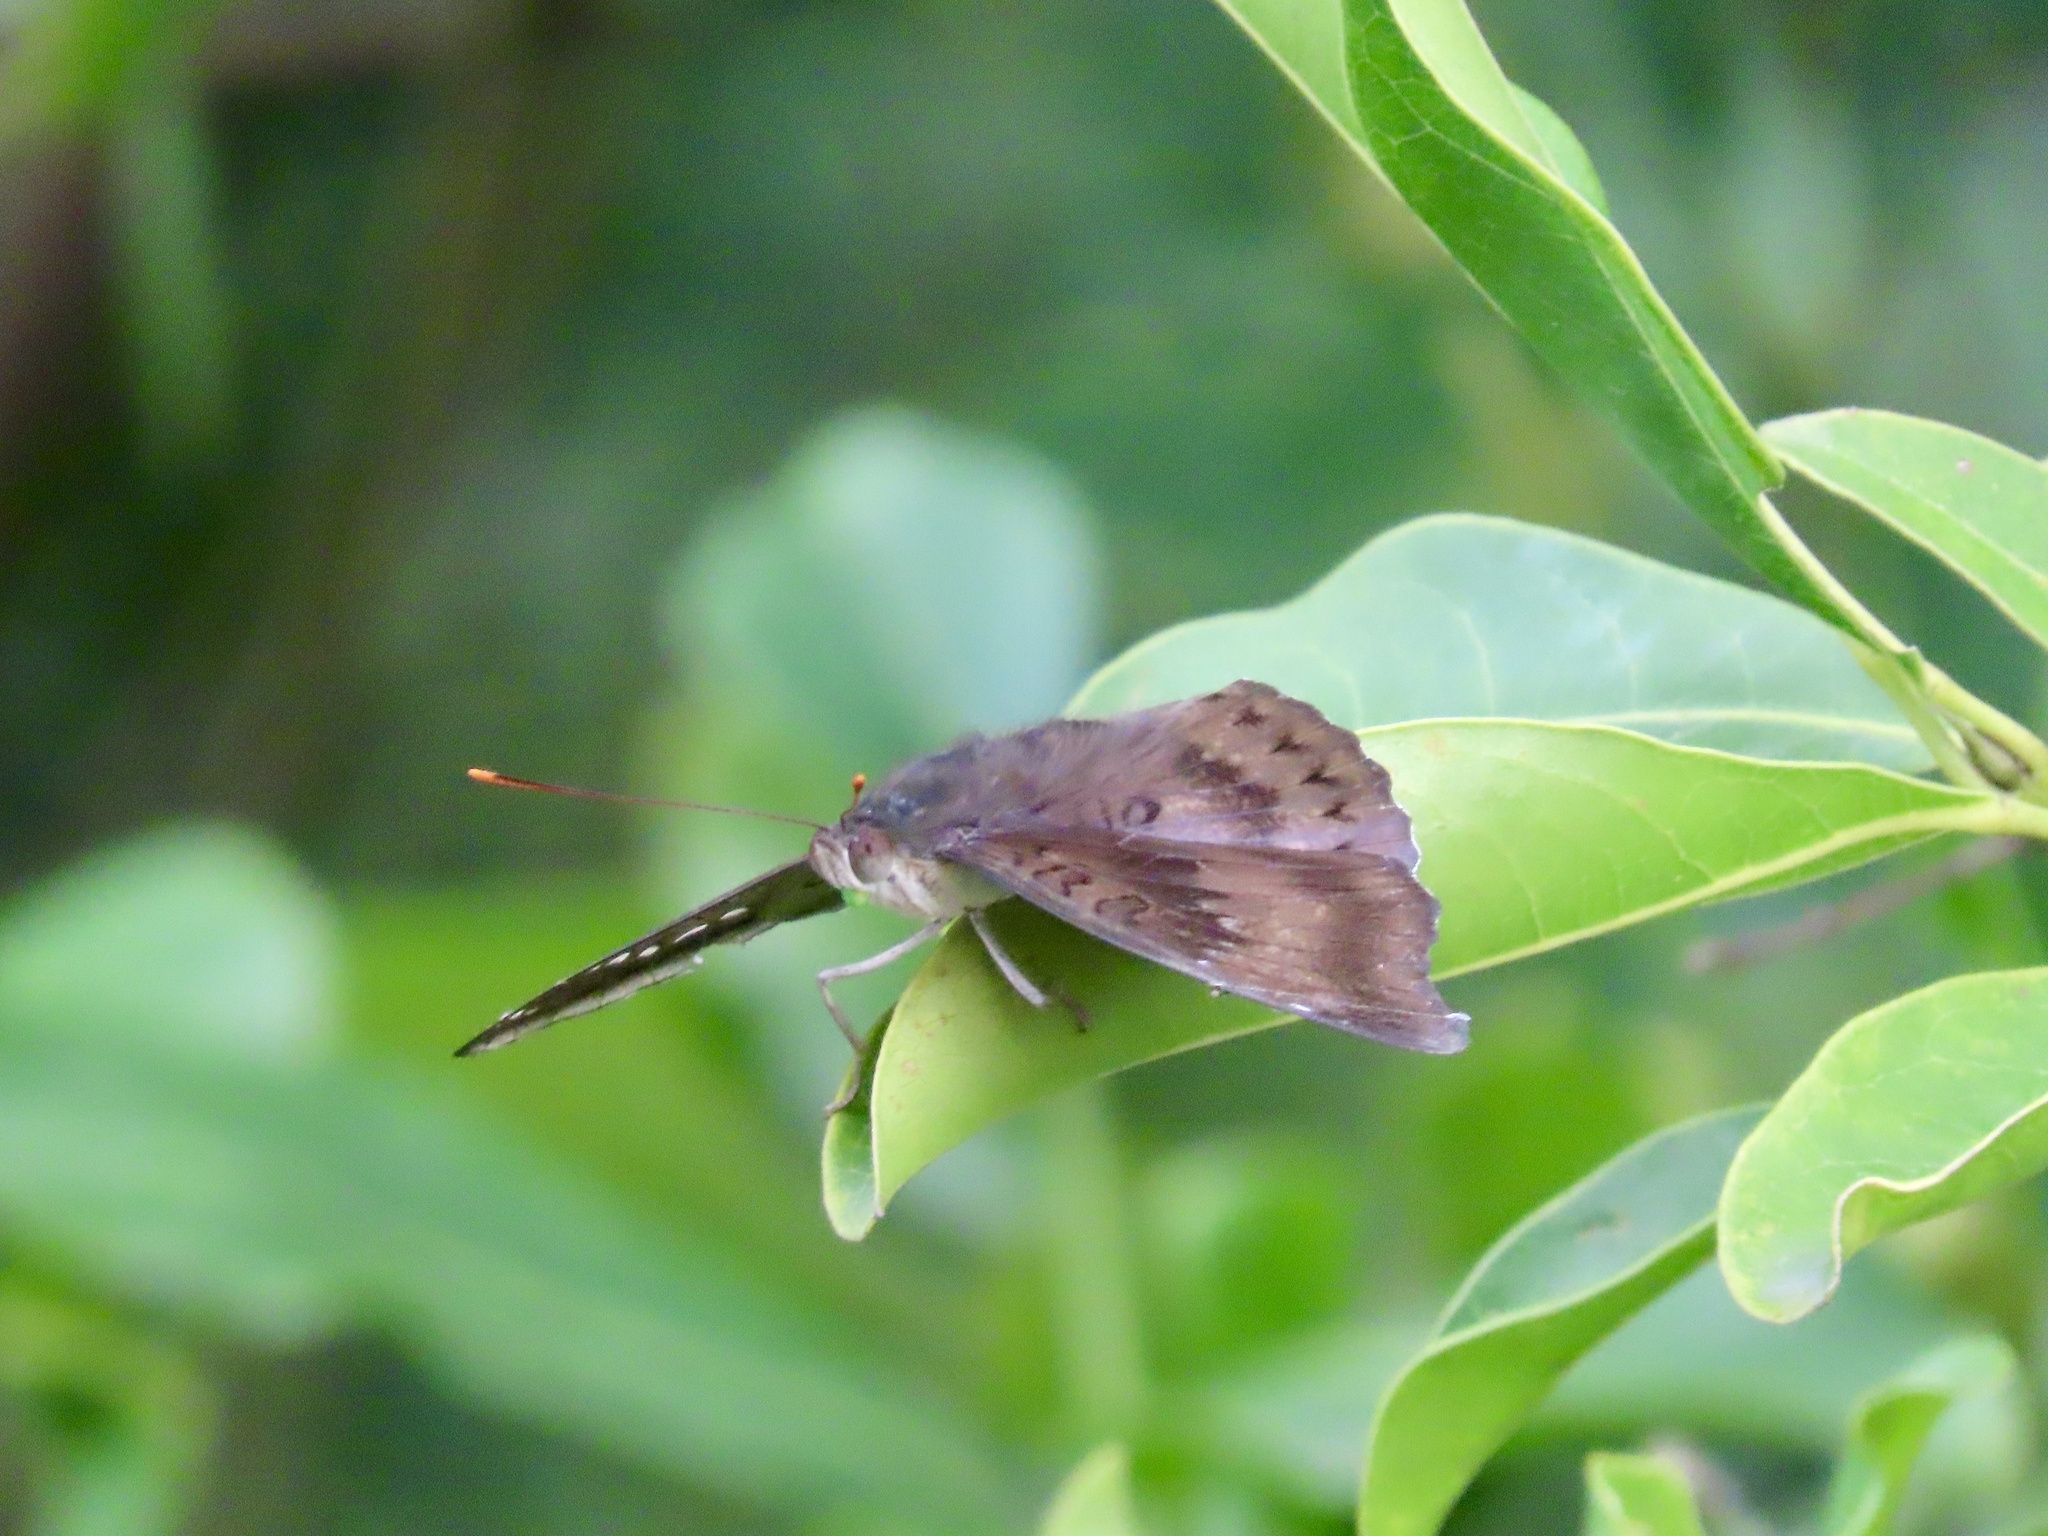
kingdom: Animalia
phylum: Arthropoda
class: Insecta
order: Lepidoptera
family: Nymphalidae
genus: Euthalia
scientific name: Euthalia aconthea
